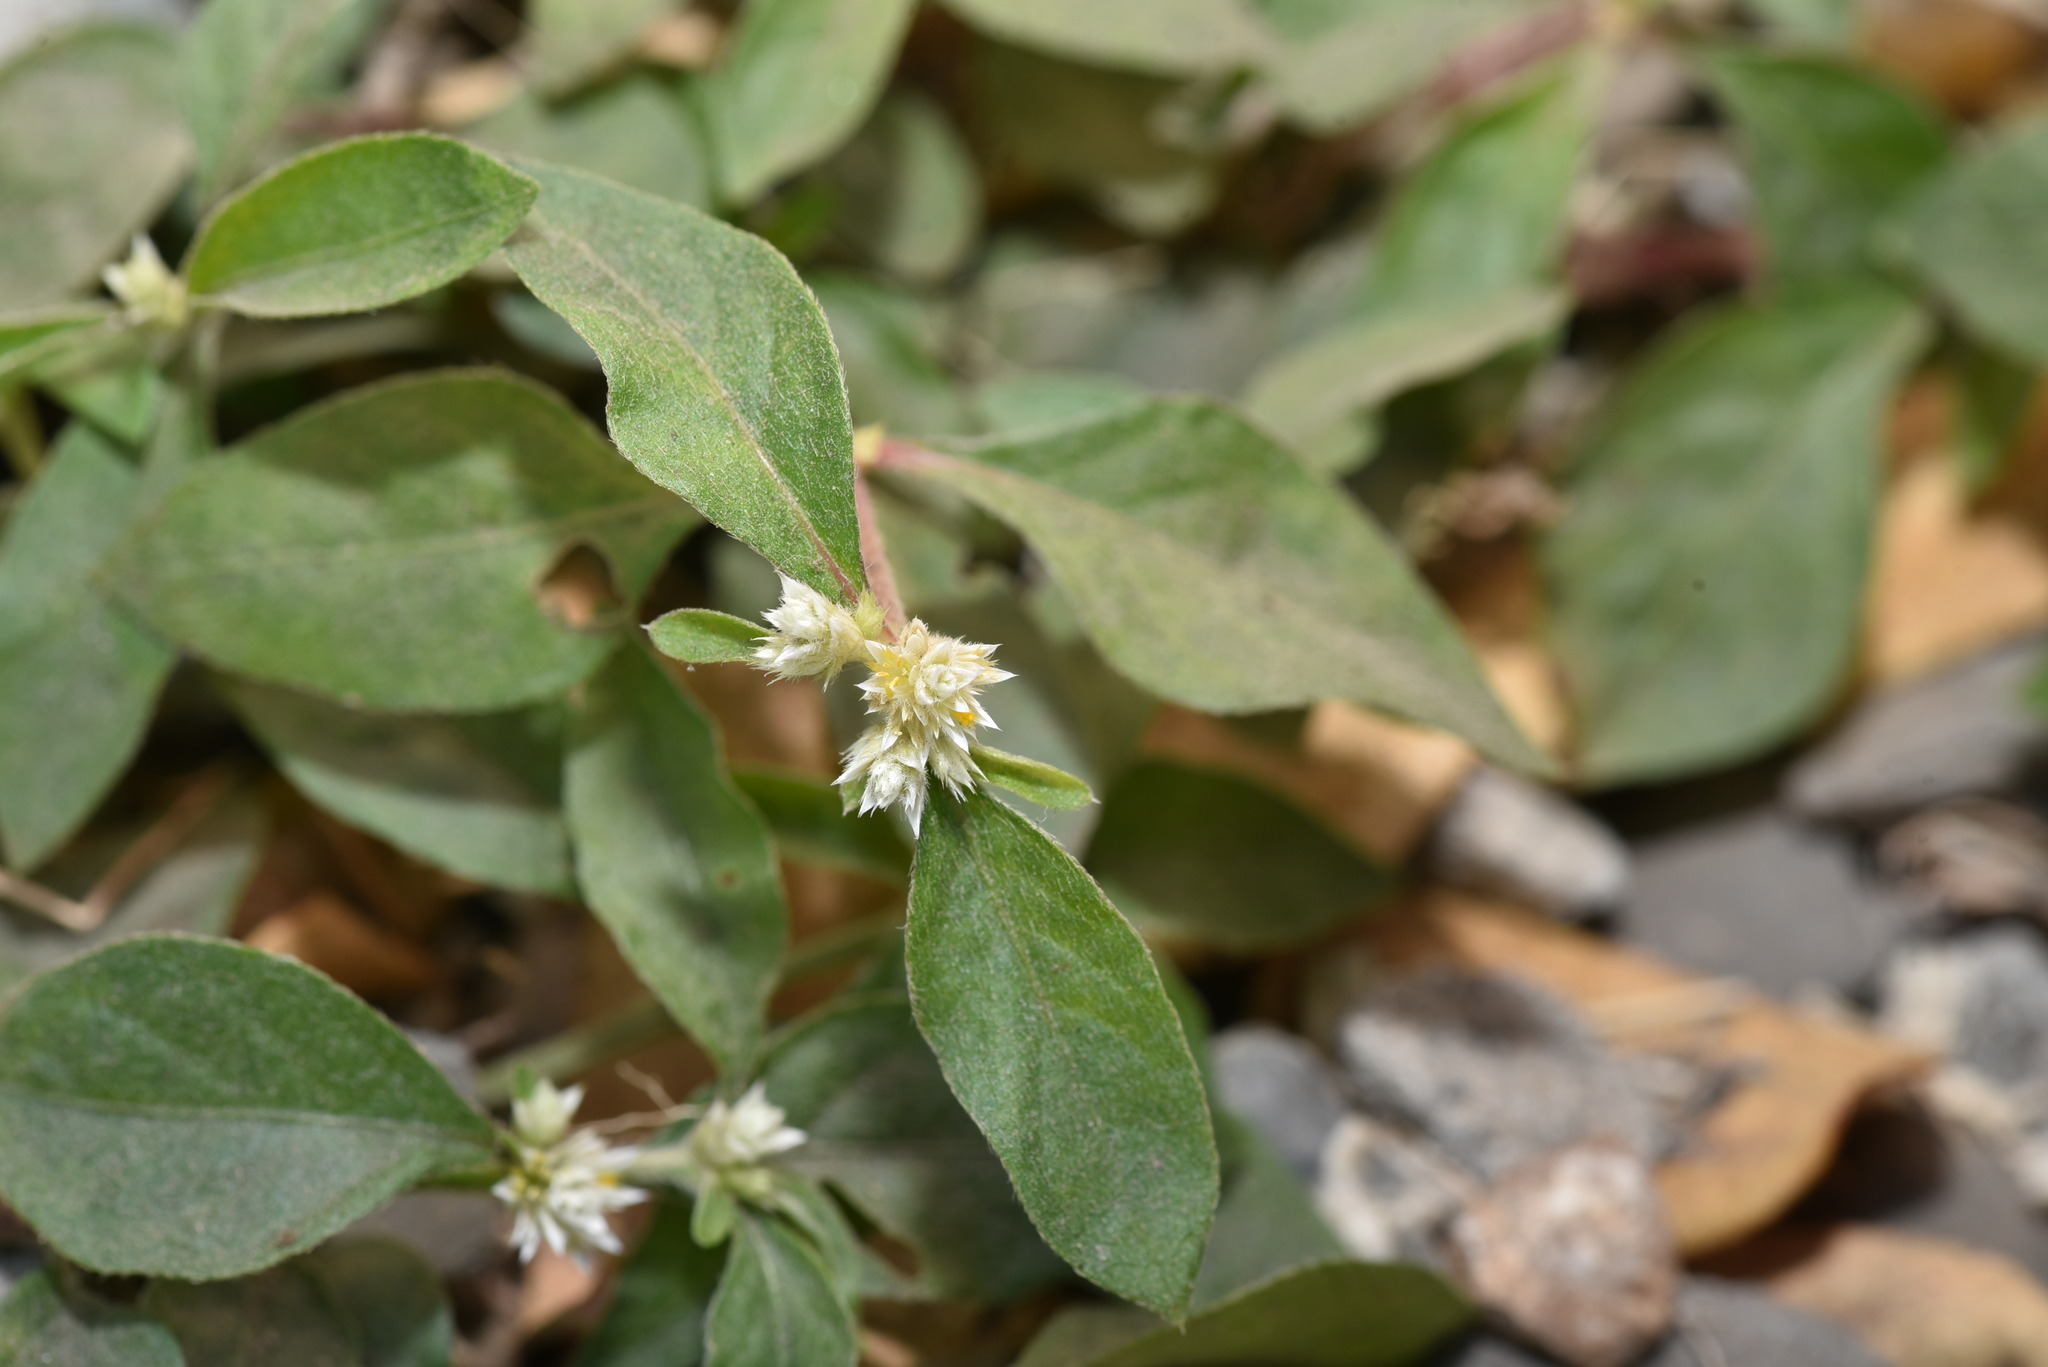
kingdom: Plantae
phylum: Tracheophyta
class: Magnoliopsida
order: Caryophyllales
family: Amaranthaceae
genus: Alternanthera
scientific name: Alternanthera ficoidea
